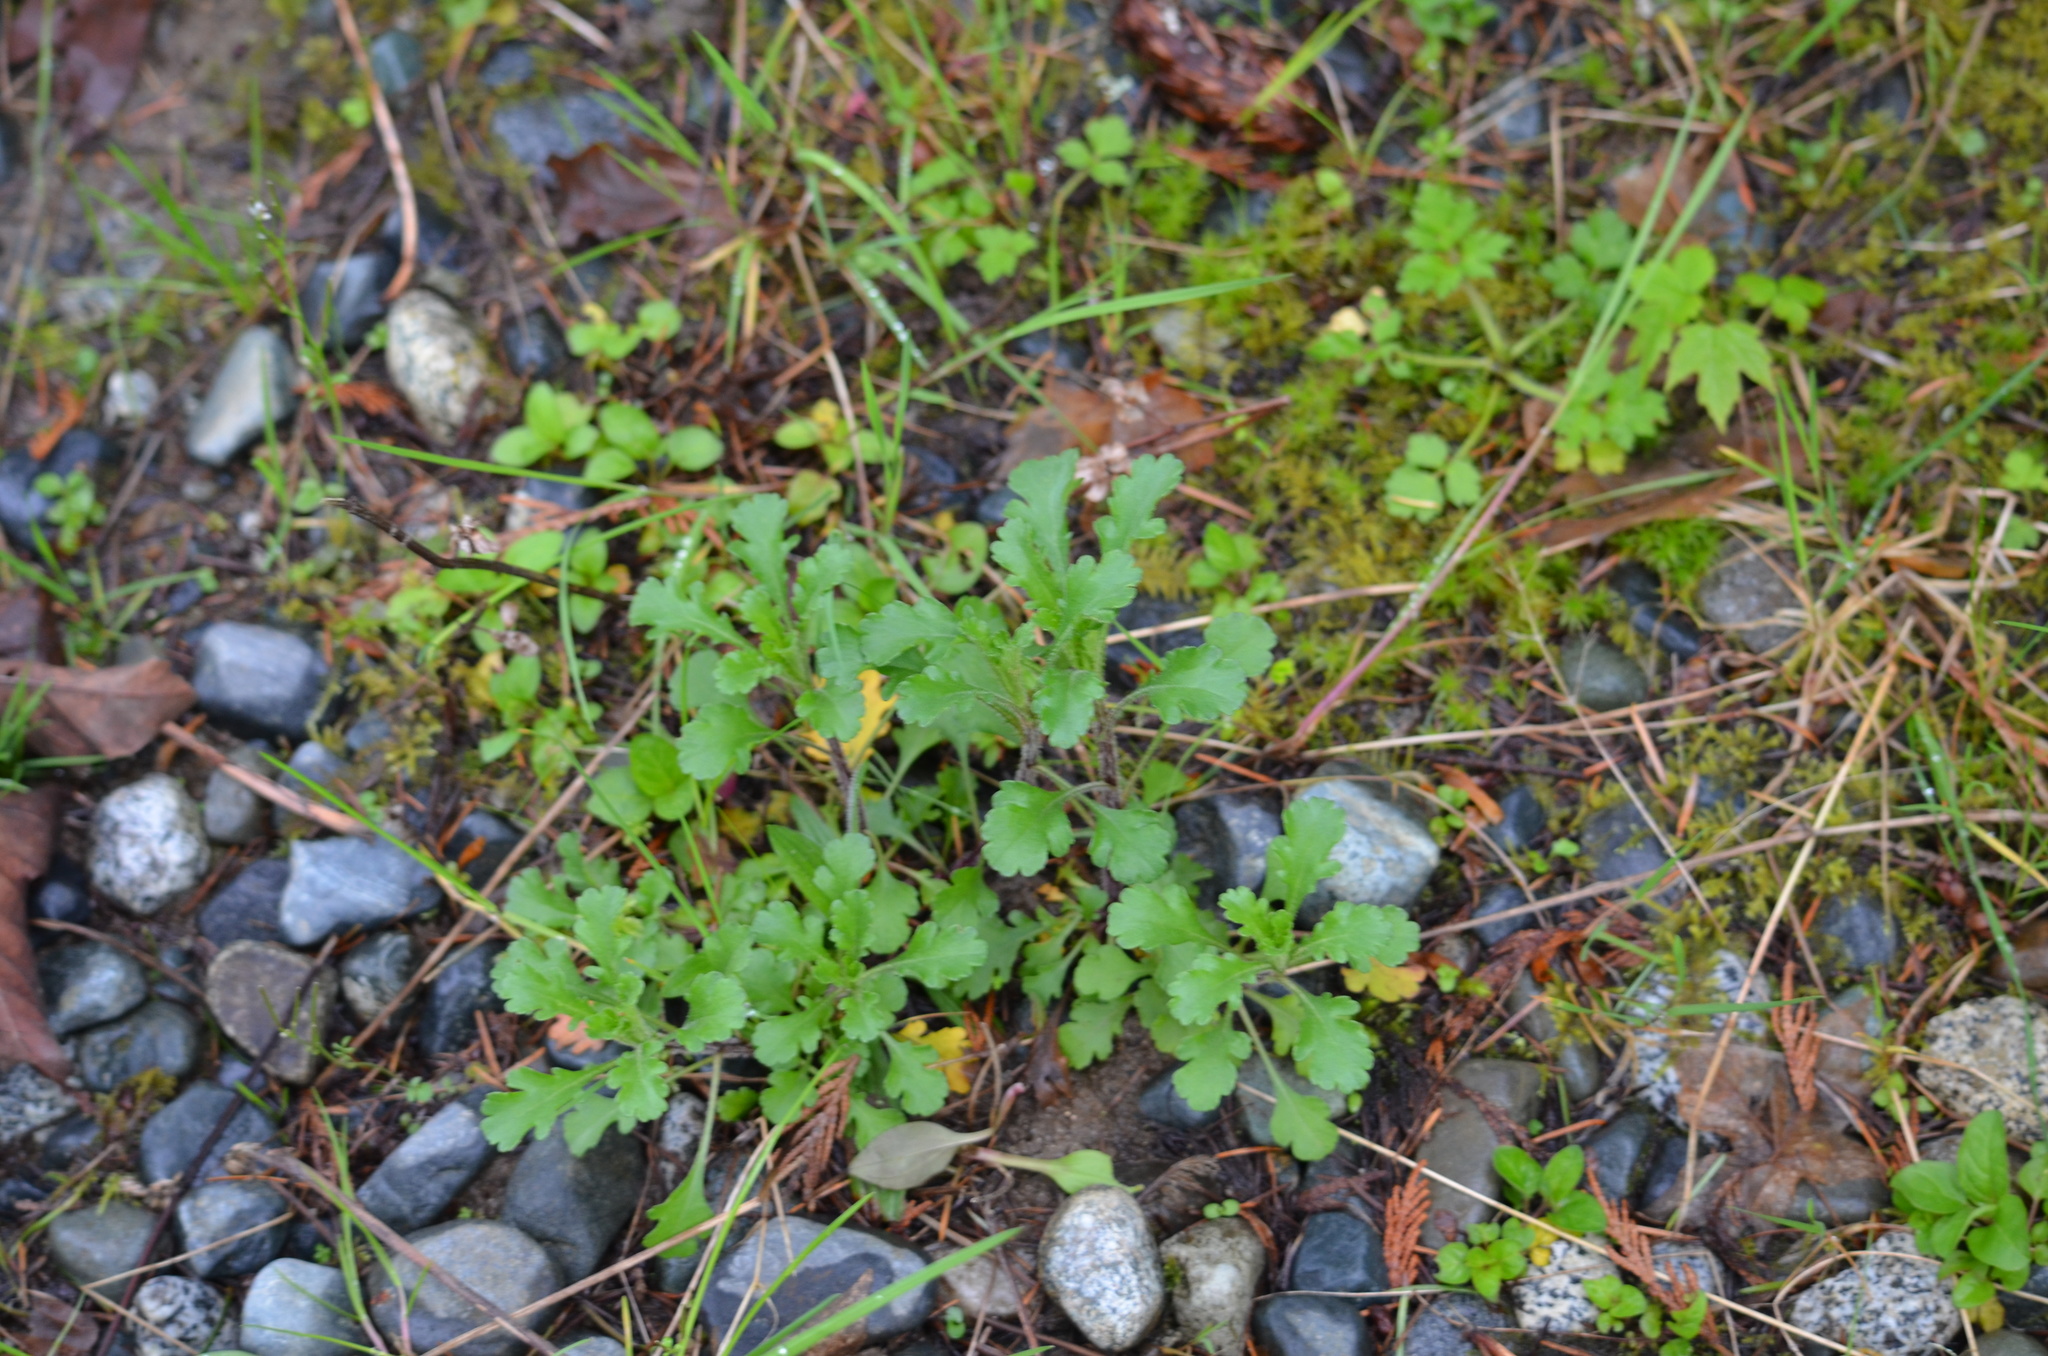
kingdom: Plantae
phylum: Tracheophyta
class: Magnoliopsida
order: Asterales
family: Asteraceae
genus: Leucanthemum
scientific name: Leucanthemum vulgare
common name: Oxeye daisy
